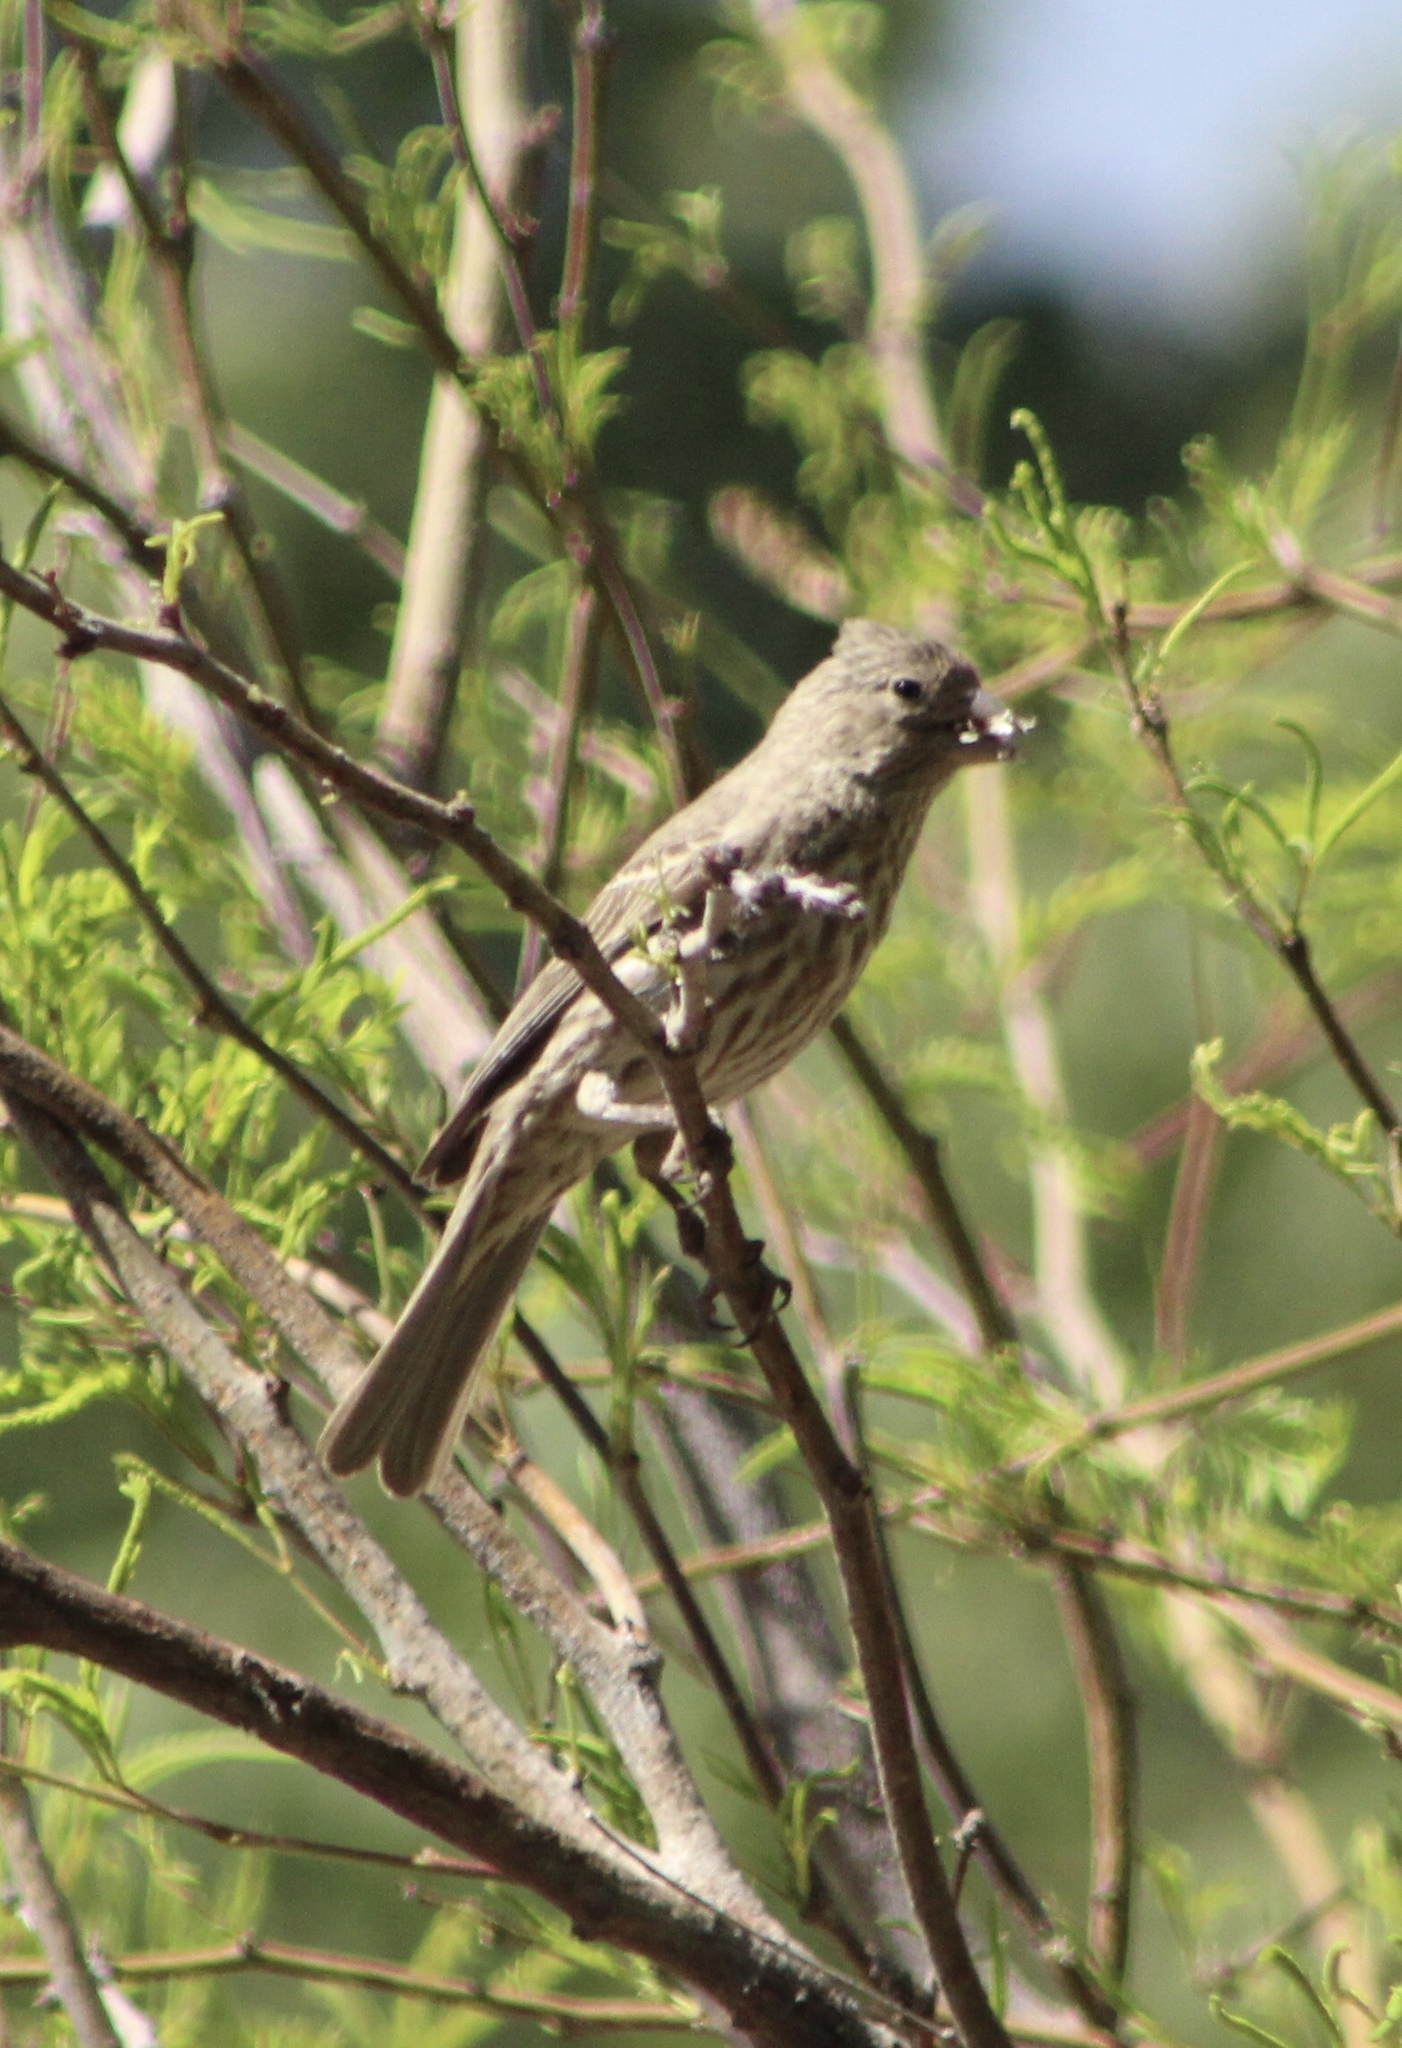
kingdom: Animalia
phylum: Chordata
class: Aves
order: Passeriformes
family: Fringillidae
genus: Haemorhous
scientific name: Haemorhous mexicanus
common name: House finch
